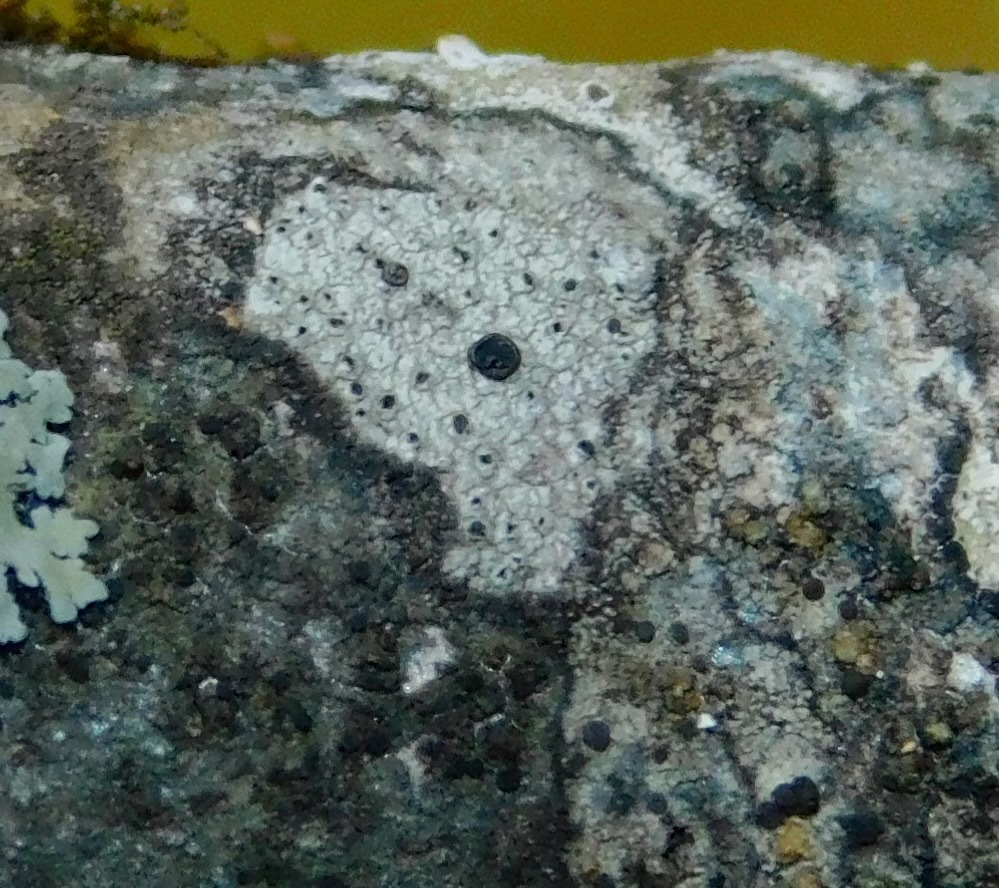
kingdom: Fungi
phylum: Ascomycota
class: Lecanoromycetes
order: Lecanorales
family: Lecanoraceae
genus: Lecidella
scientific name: Lecidella elaeochroma
